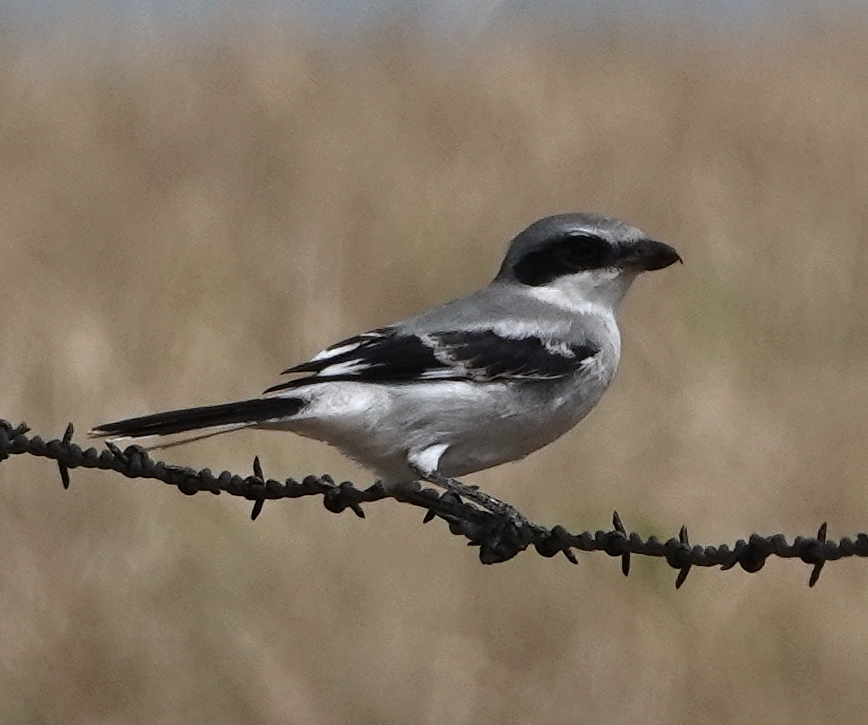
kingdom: Animalia
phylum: Chordata
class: Aves
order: Passeriformes
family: Laniidae
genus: Lanius
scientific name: Lanius ludovicianus
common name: Loggerhead shrike
